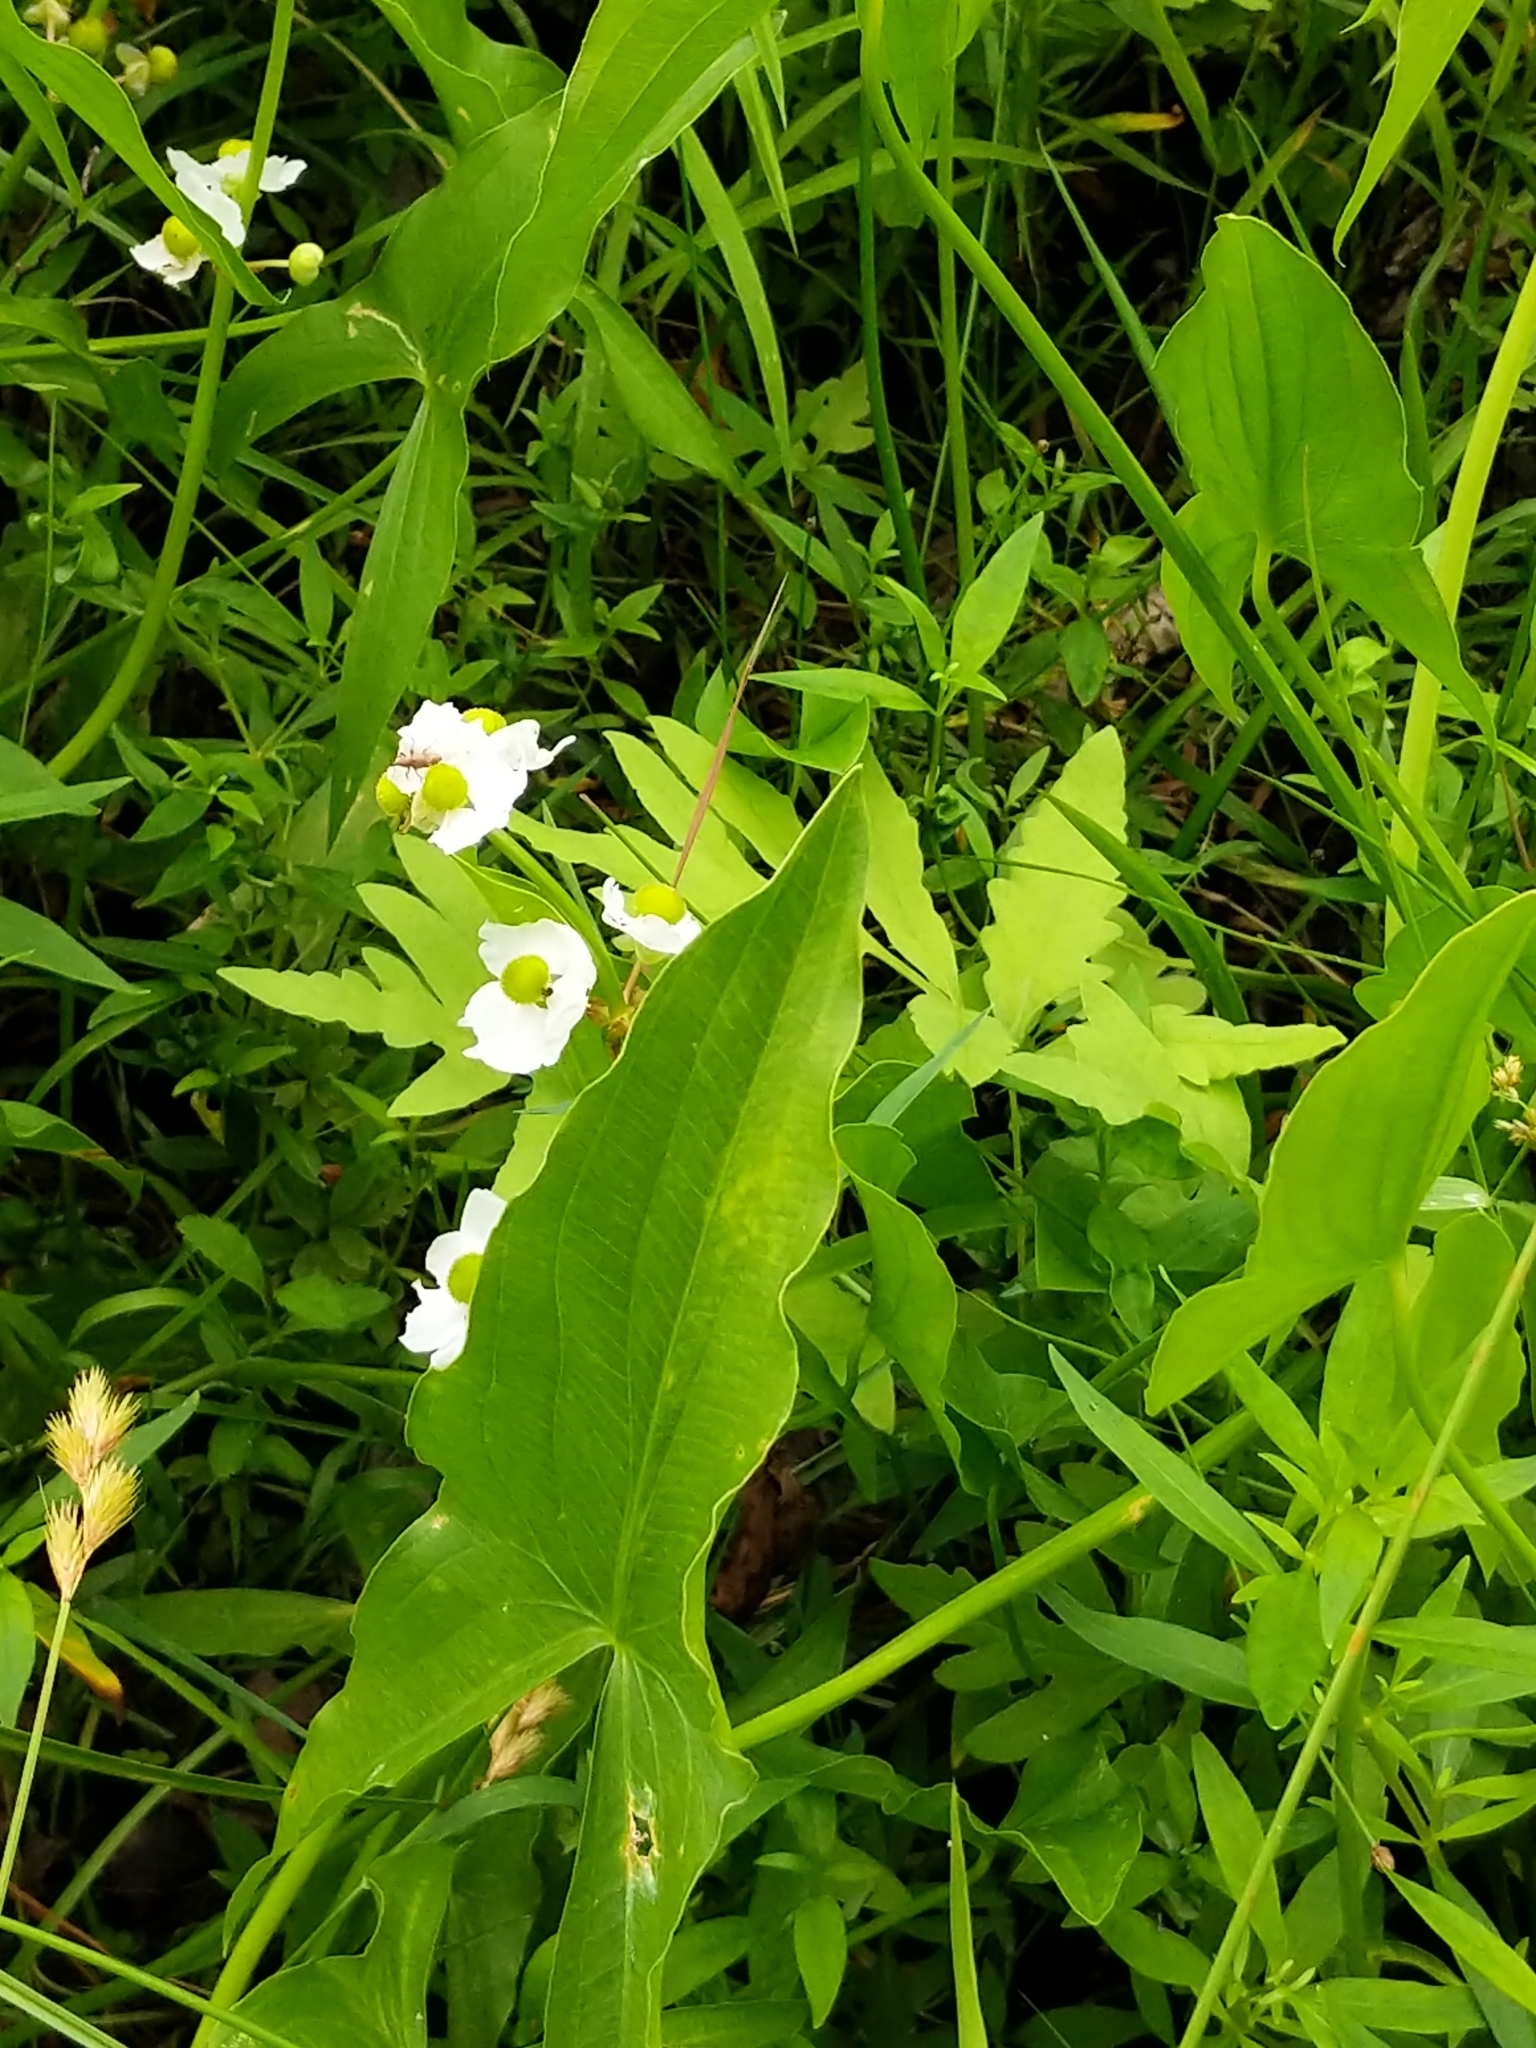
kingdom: Plantae
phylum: Tracheophyta
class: Liliopsida
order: Alismatales
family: Alismataceae
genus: Sagittaria
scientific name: Sagittaria latifolia
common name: Duck-potato
